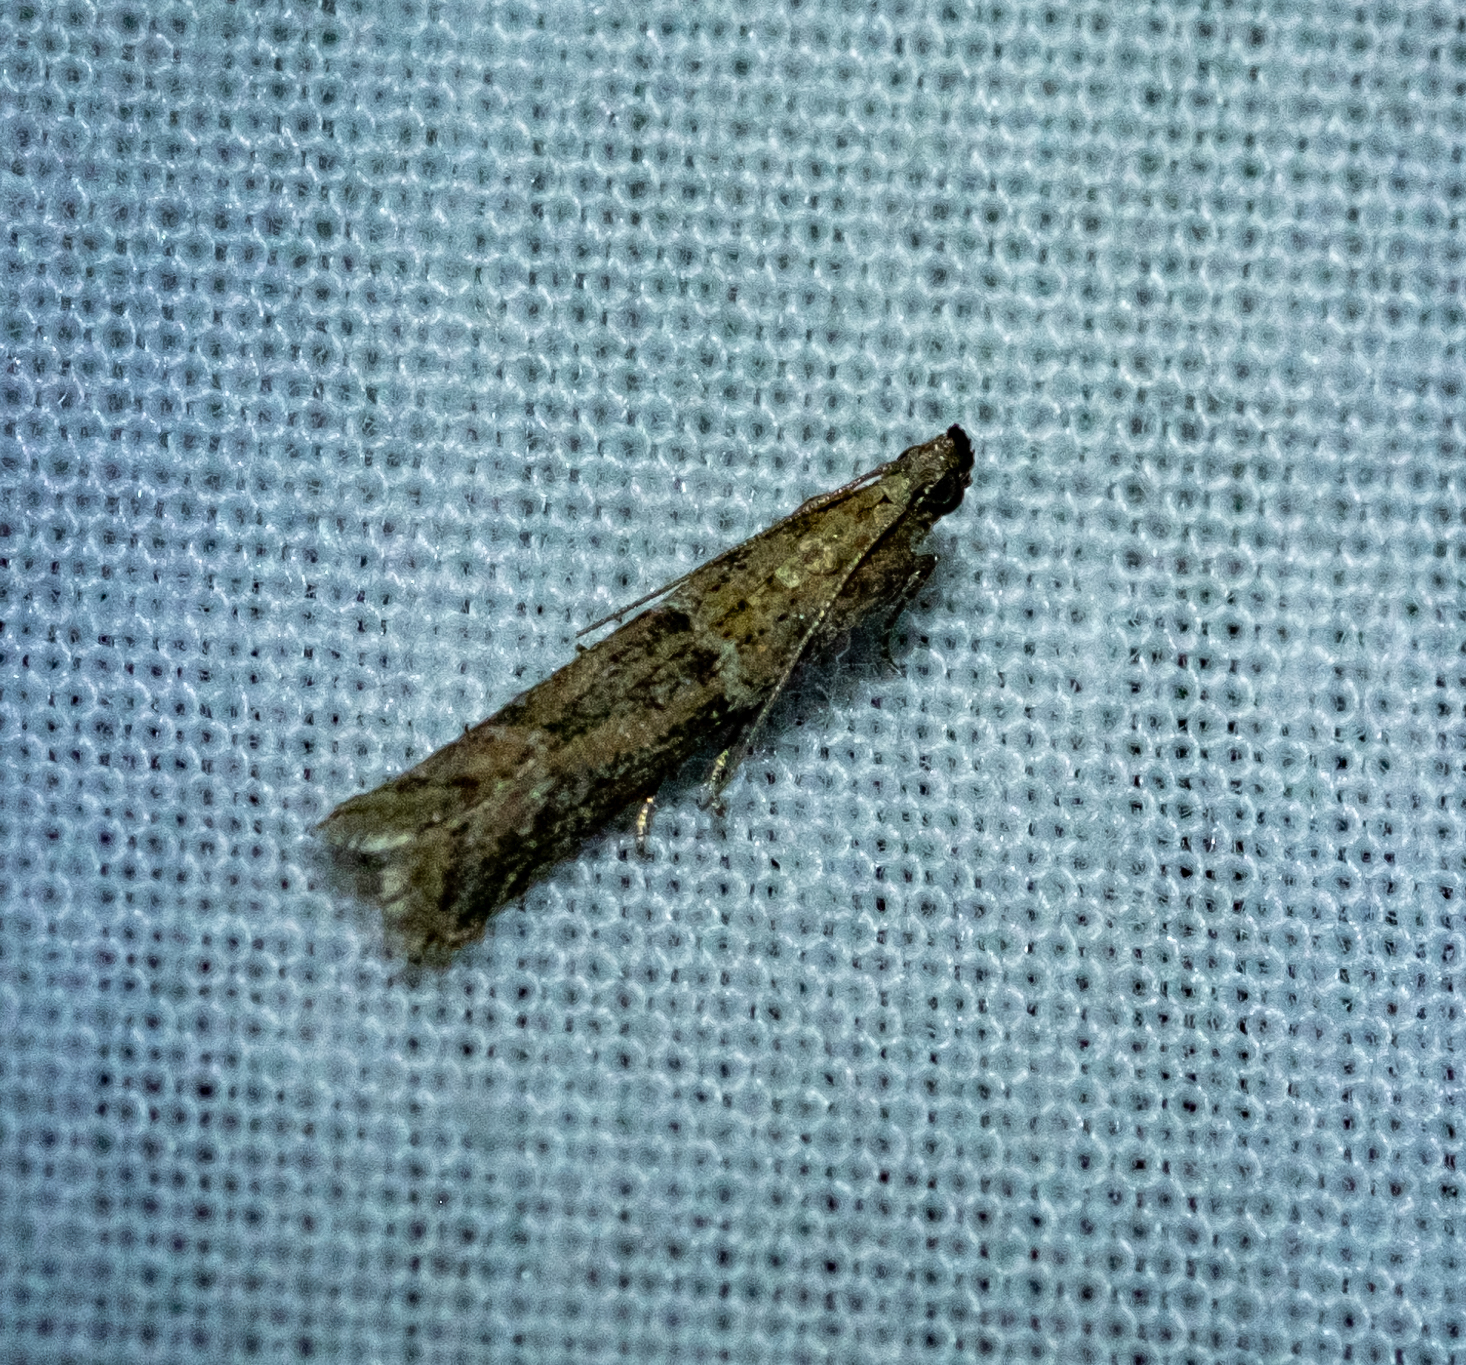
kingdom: Animalia
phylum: Arthropoda
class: Insecta
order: Lepidoptera
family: Pyralidae
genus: Ephestiodes
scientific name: Ephestiodes gilvescentella
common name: Moth
